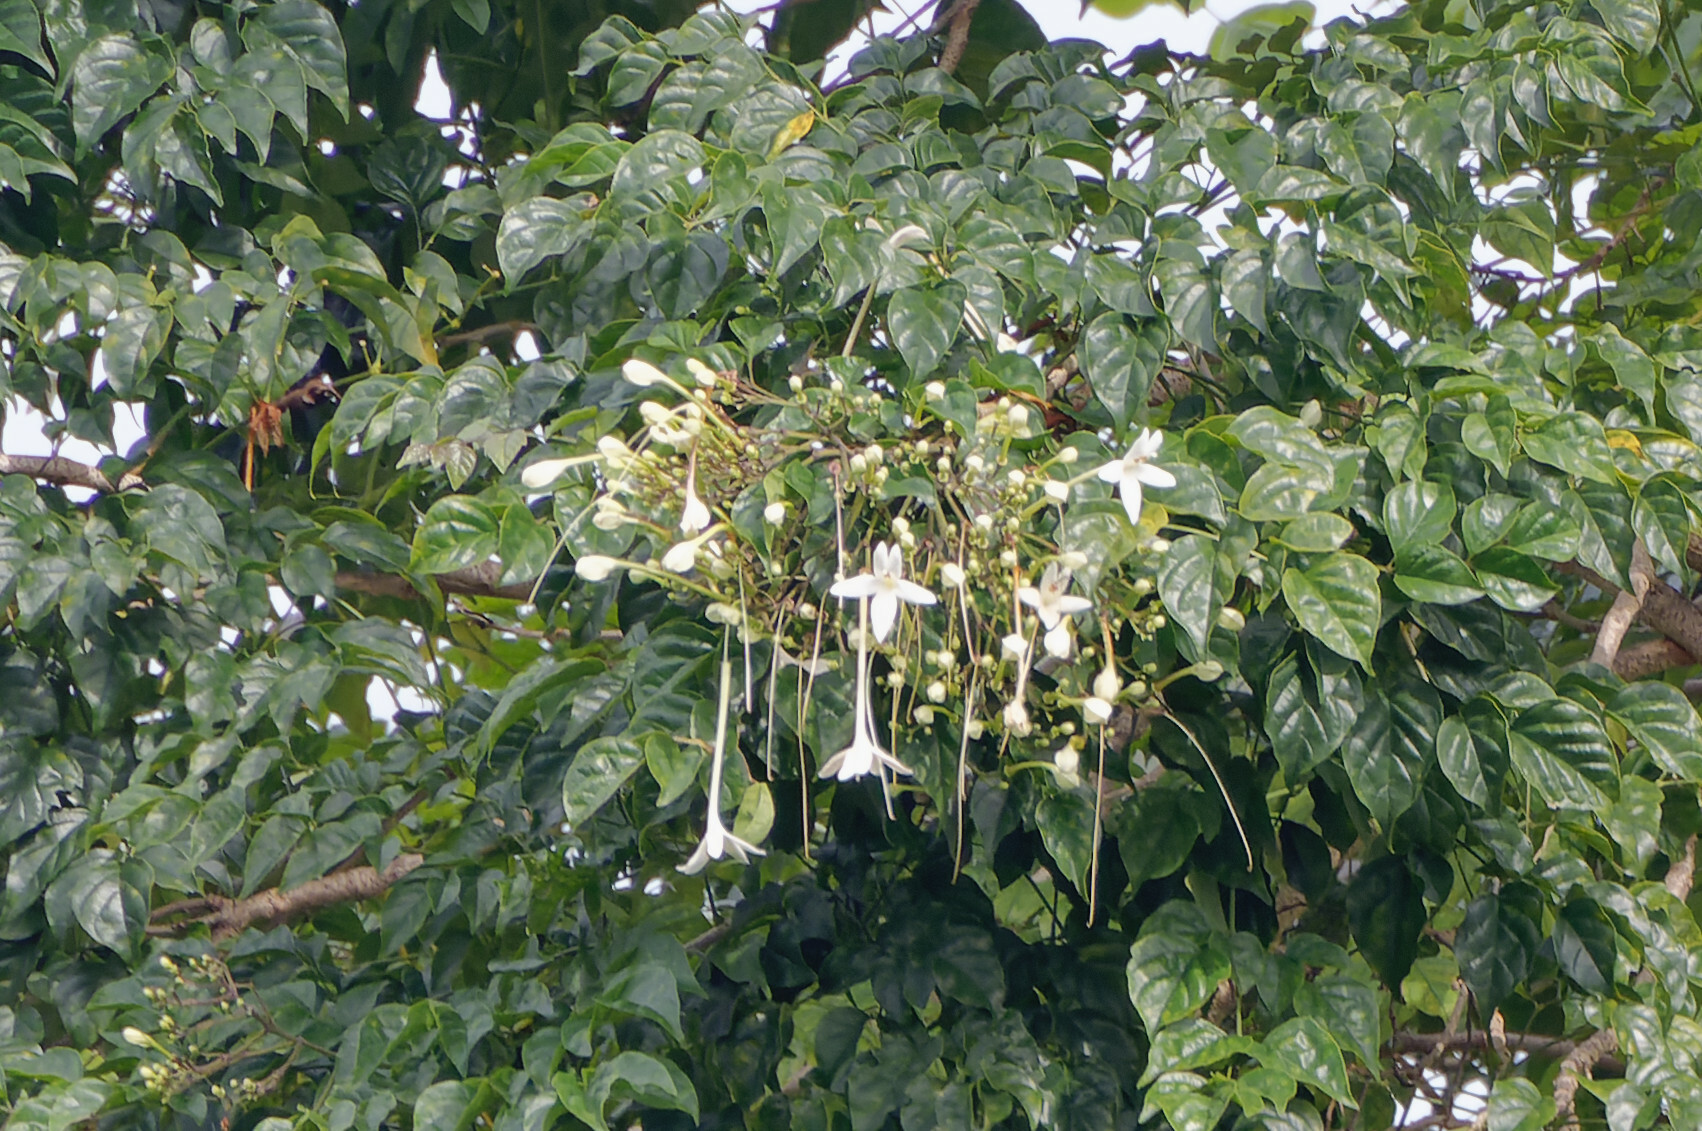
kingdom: Plantae
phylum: Tracheophyta
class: Magnoliopsida
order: Lamiales
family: Bignoniaceae
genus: Millingtonia
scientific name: Millingtonia hortensis
